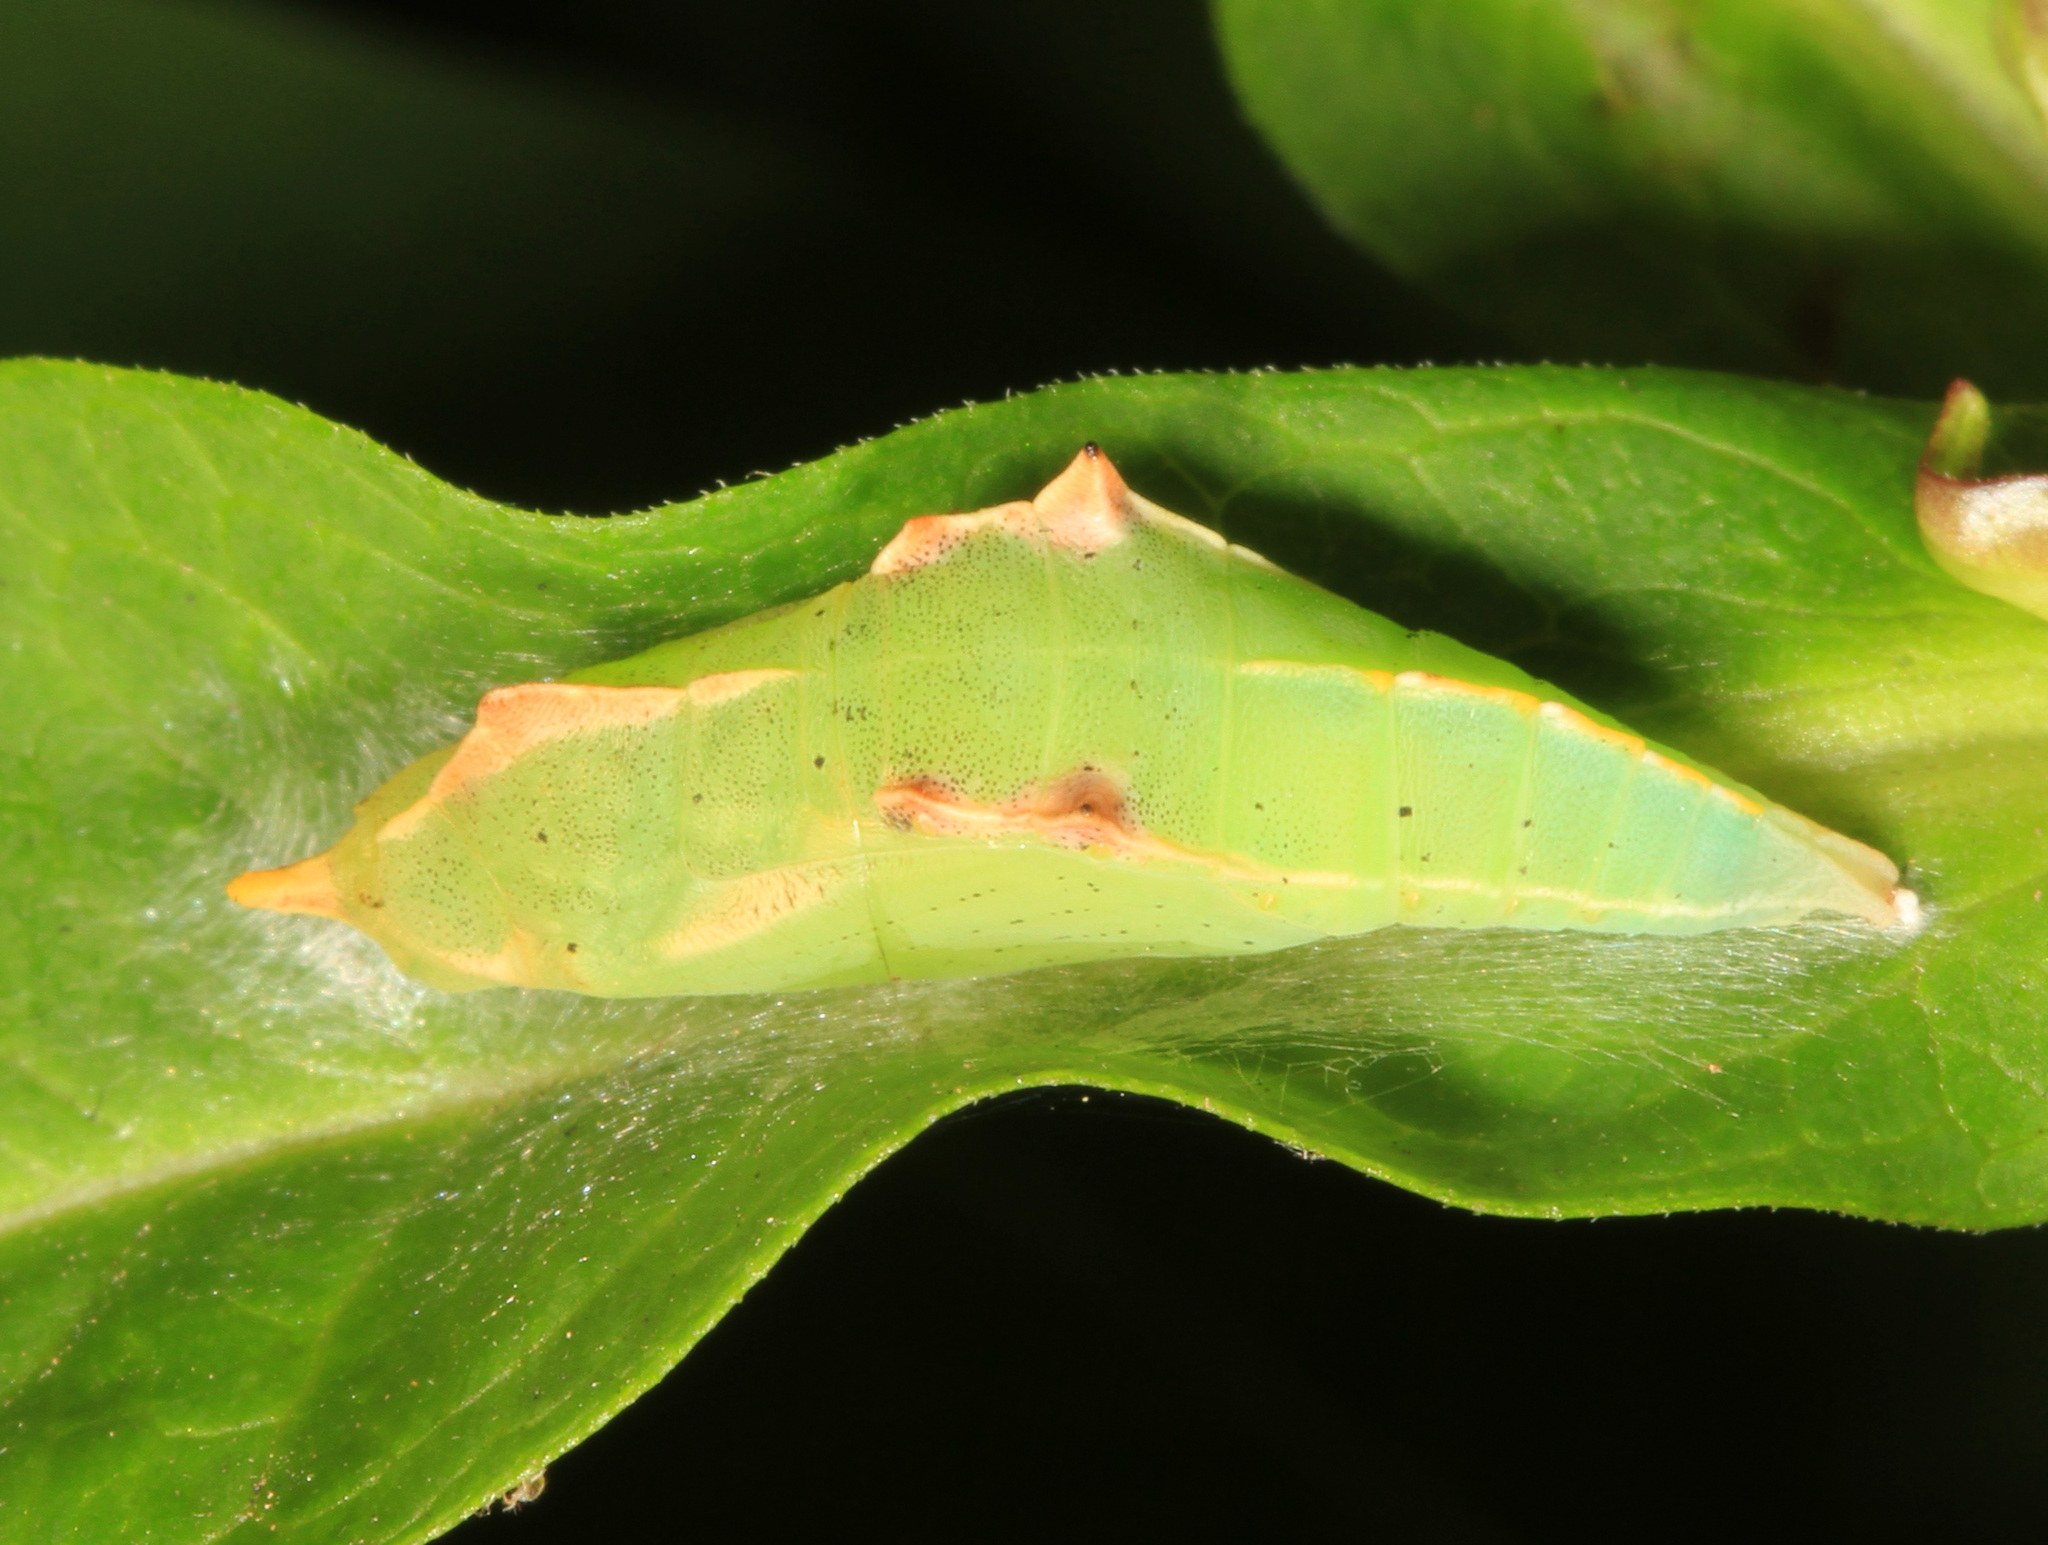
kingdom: Animalia
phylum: Arthropoda
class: Insecta
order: Lepidoptera
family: Pieridae
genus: Pieris
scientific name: Pieris rapae
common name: Small white
